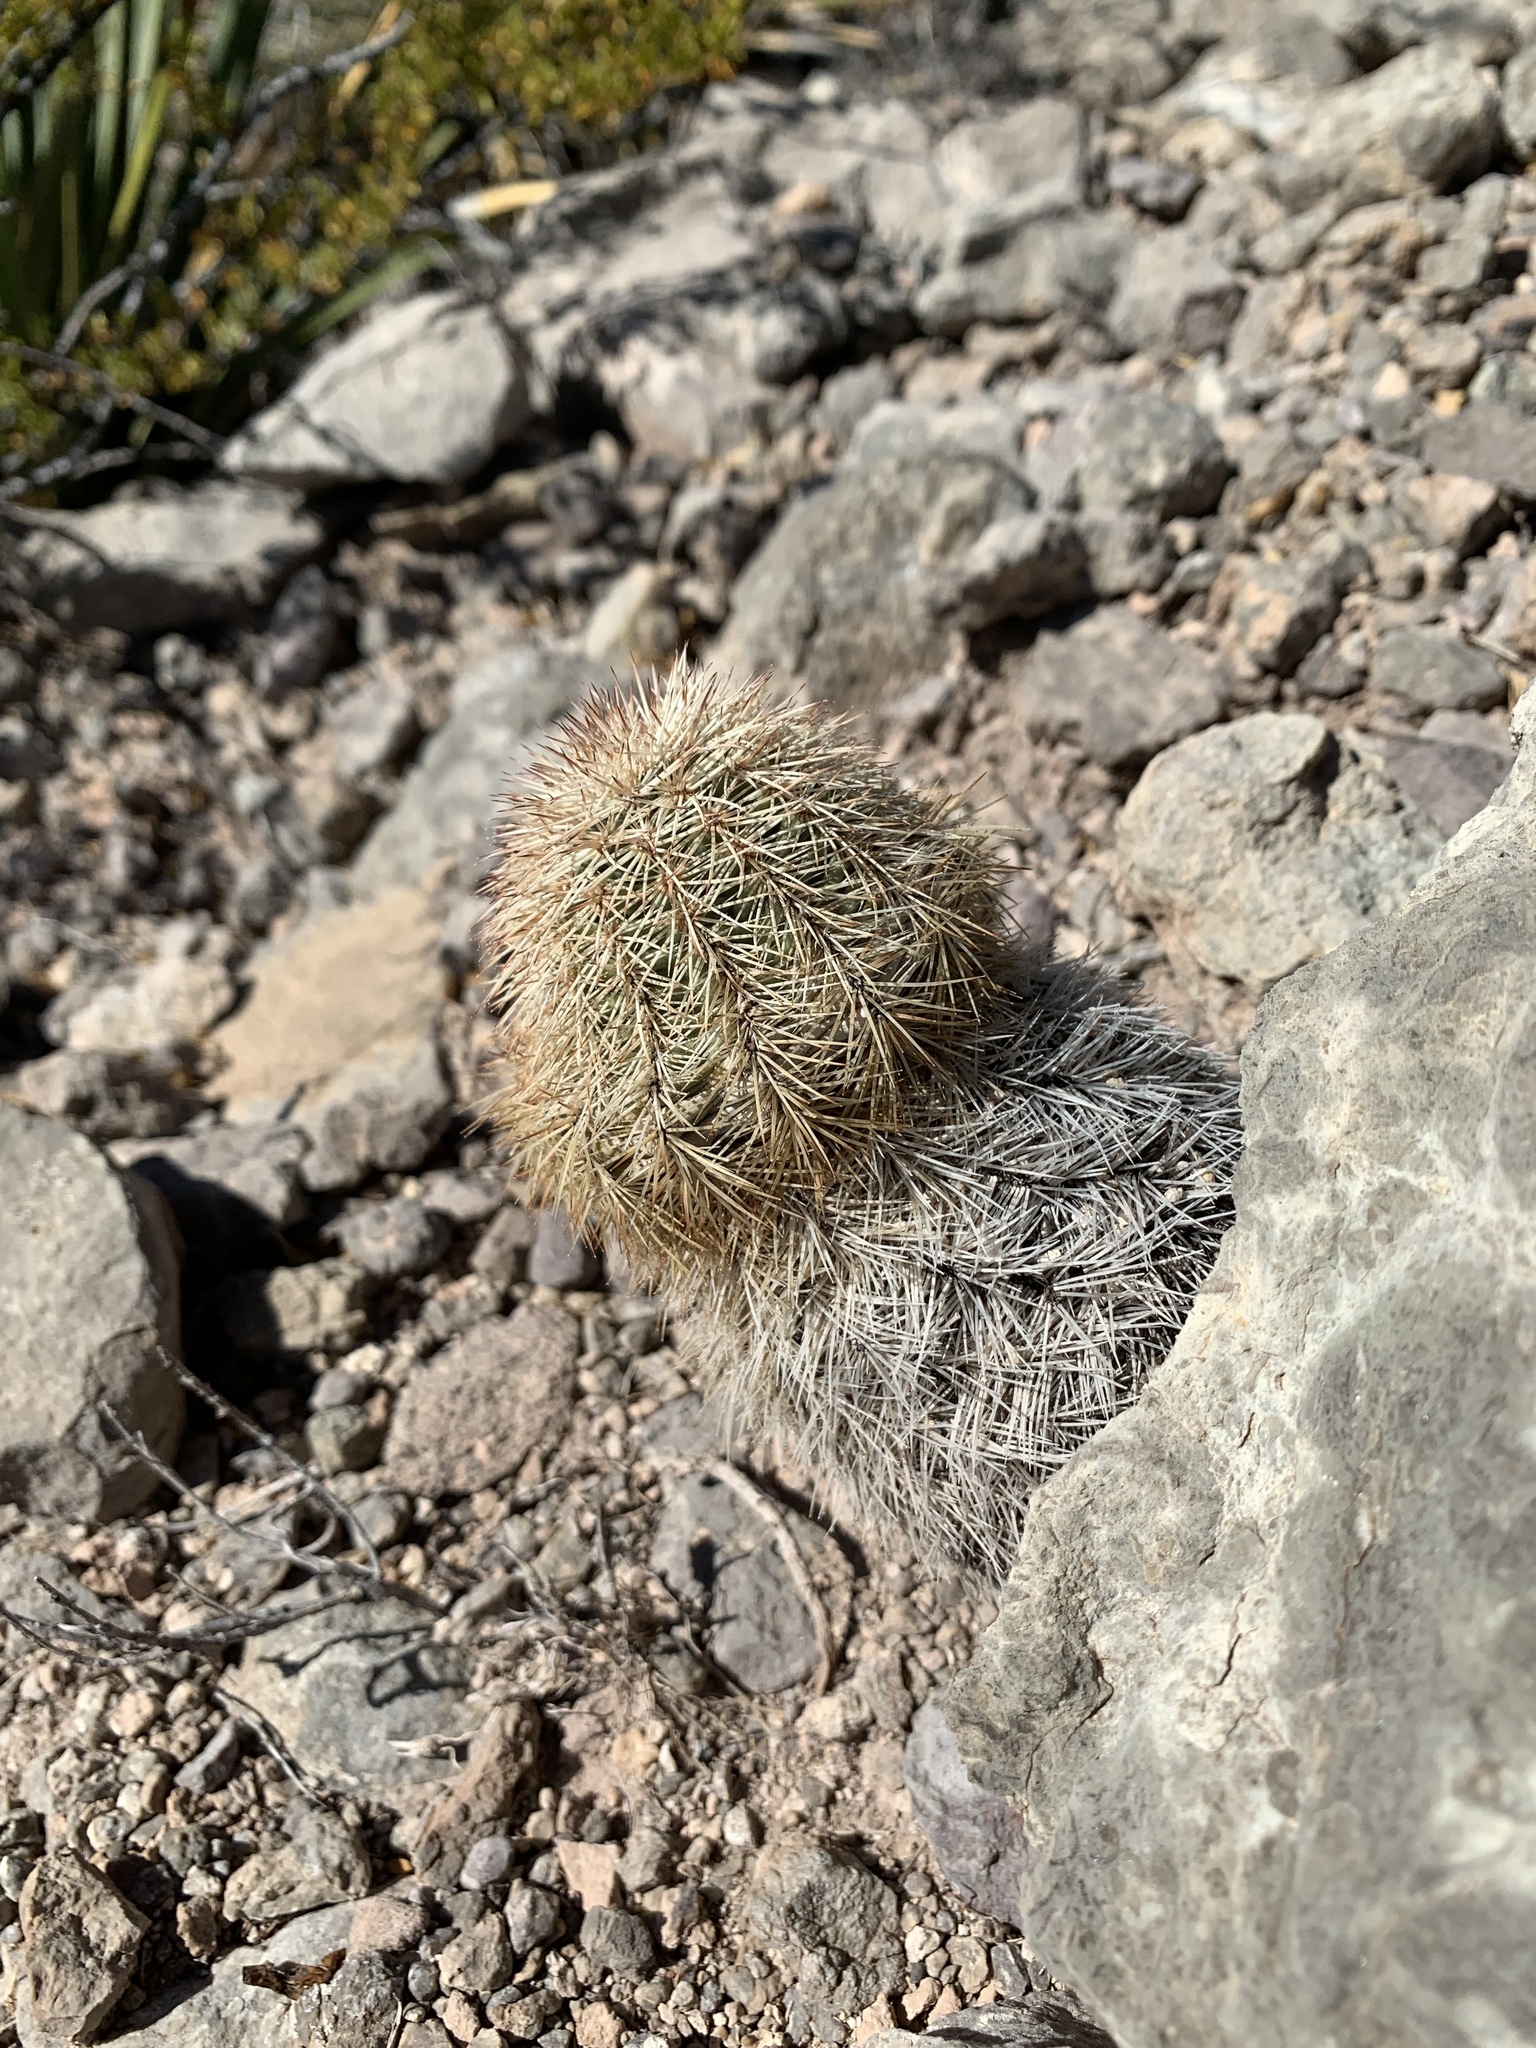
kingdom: Plantae
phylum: Tracheophyta
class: Magnoliopsida
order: Caryophyllales
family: Cactaceae
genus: Echinocereus
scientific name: Echinocereus dasyacanthus
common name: Spiny hedgehog cactus
